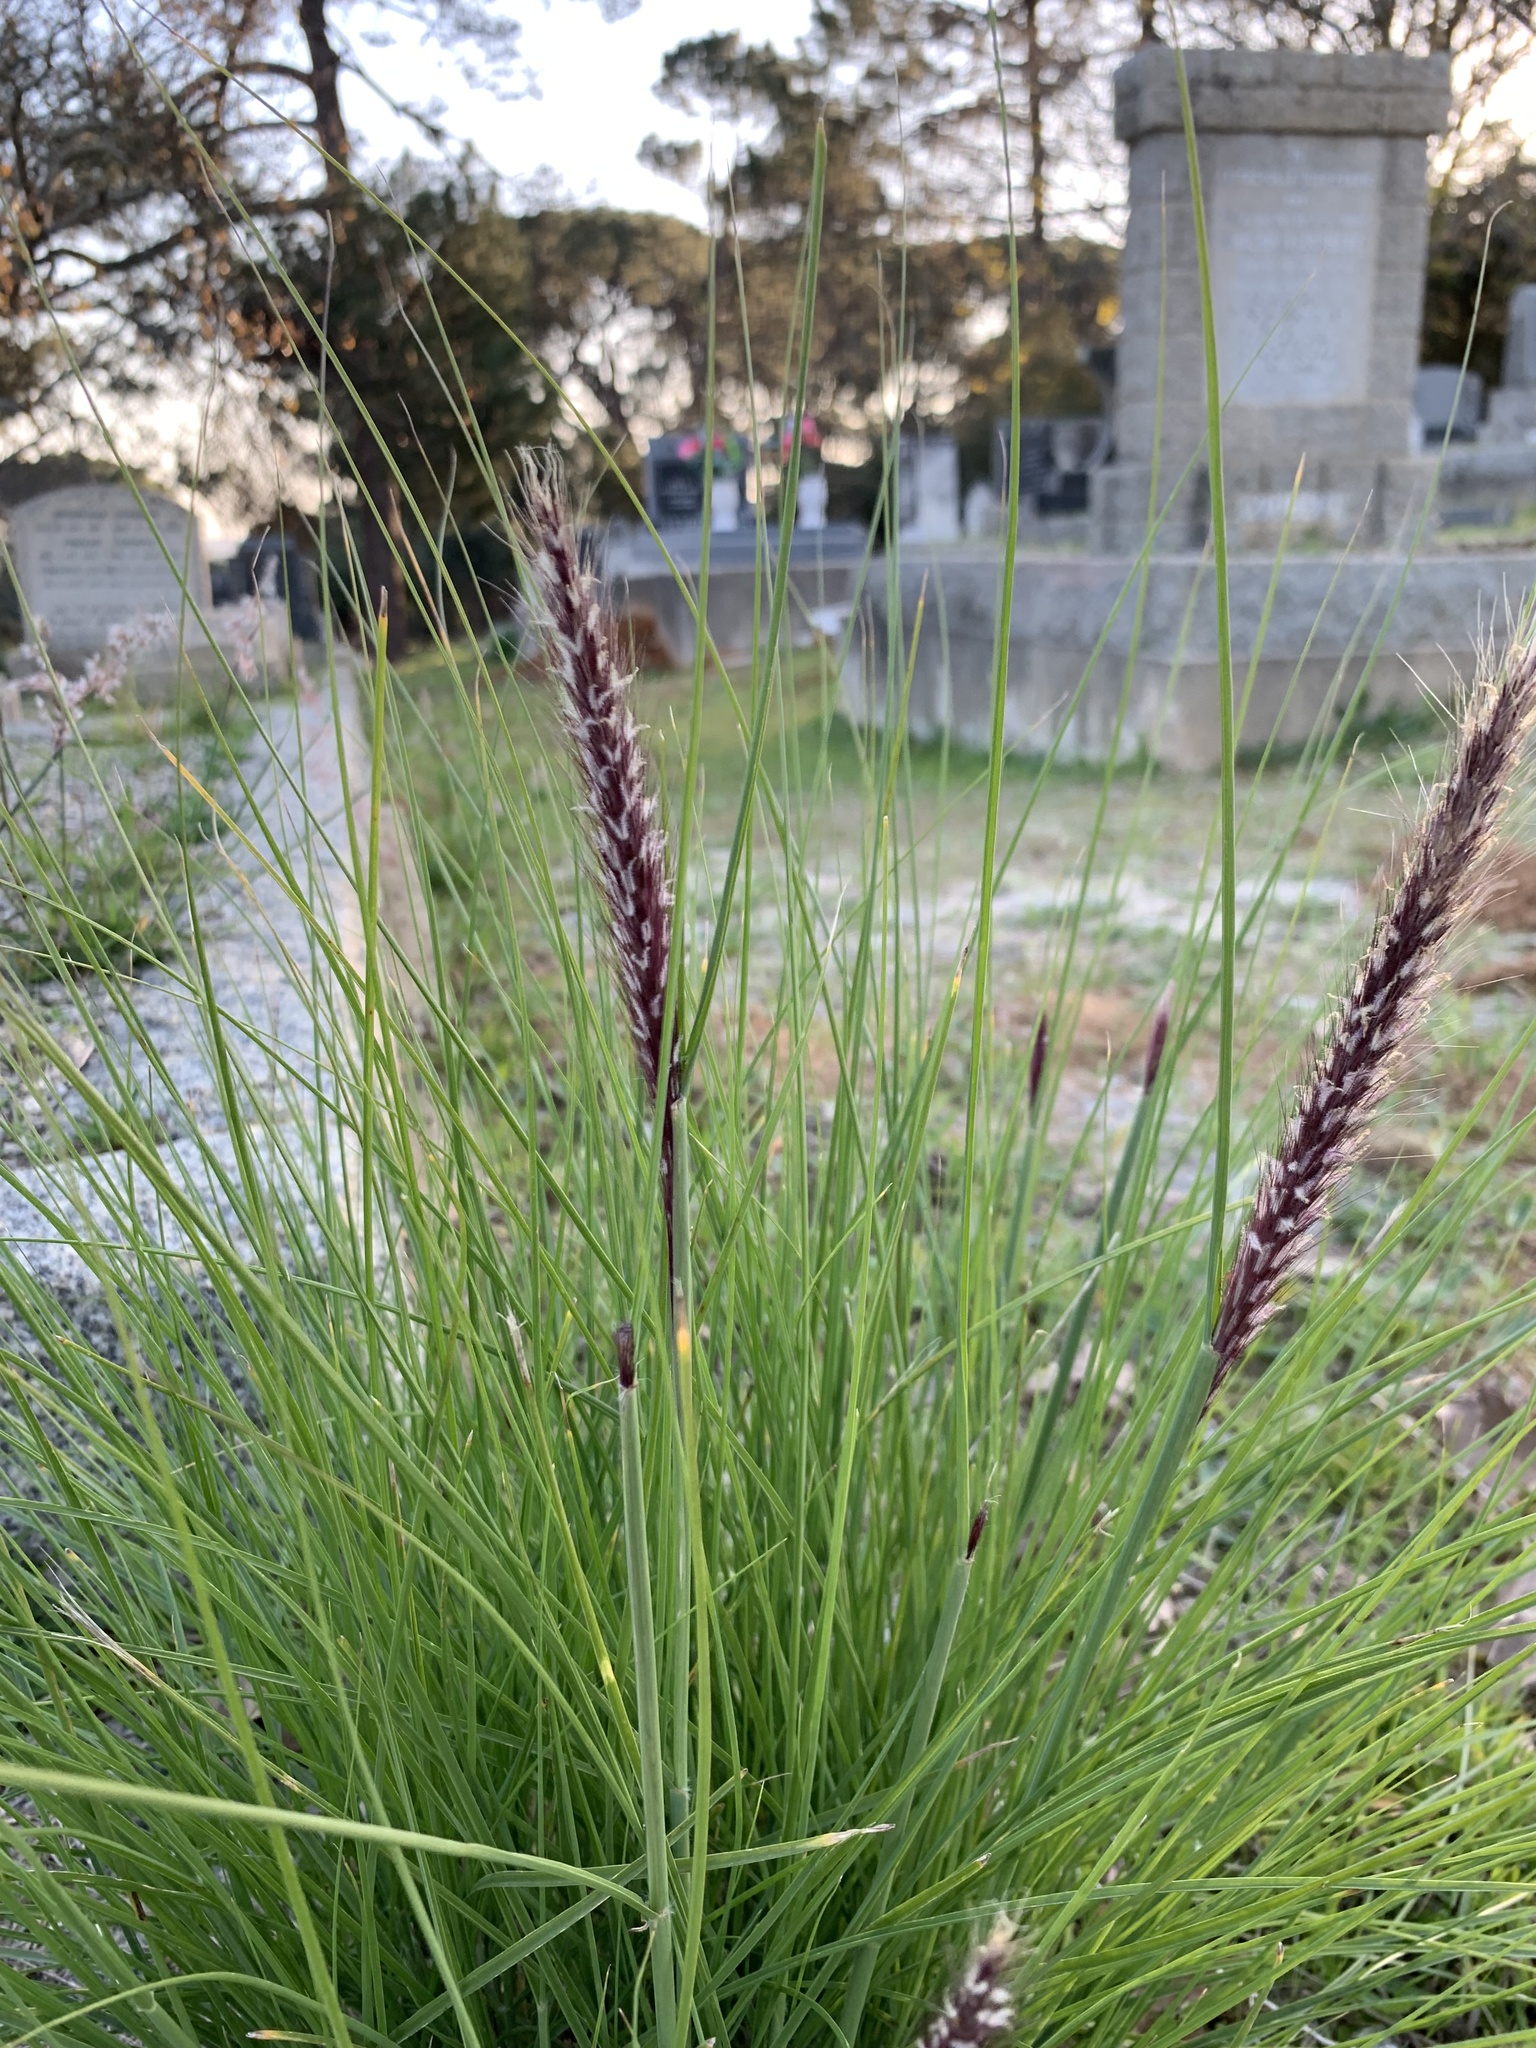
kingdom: Plantae
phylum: Tracheophyta
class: Liliopsida
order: Poales
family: Poaceae
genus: Cenchrus
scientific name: Cenchrus setaceus
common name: Crimson fountaingrass
